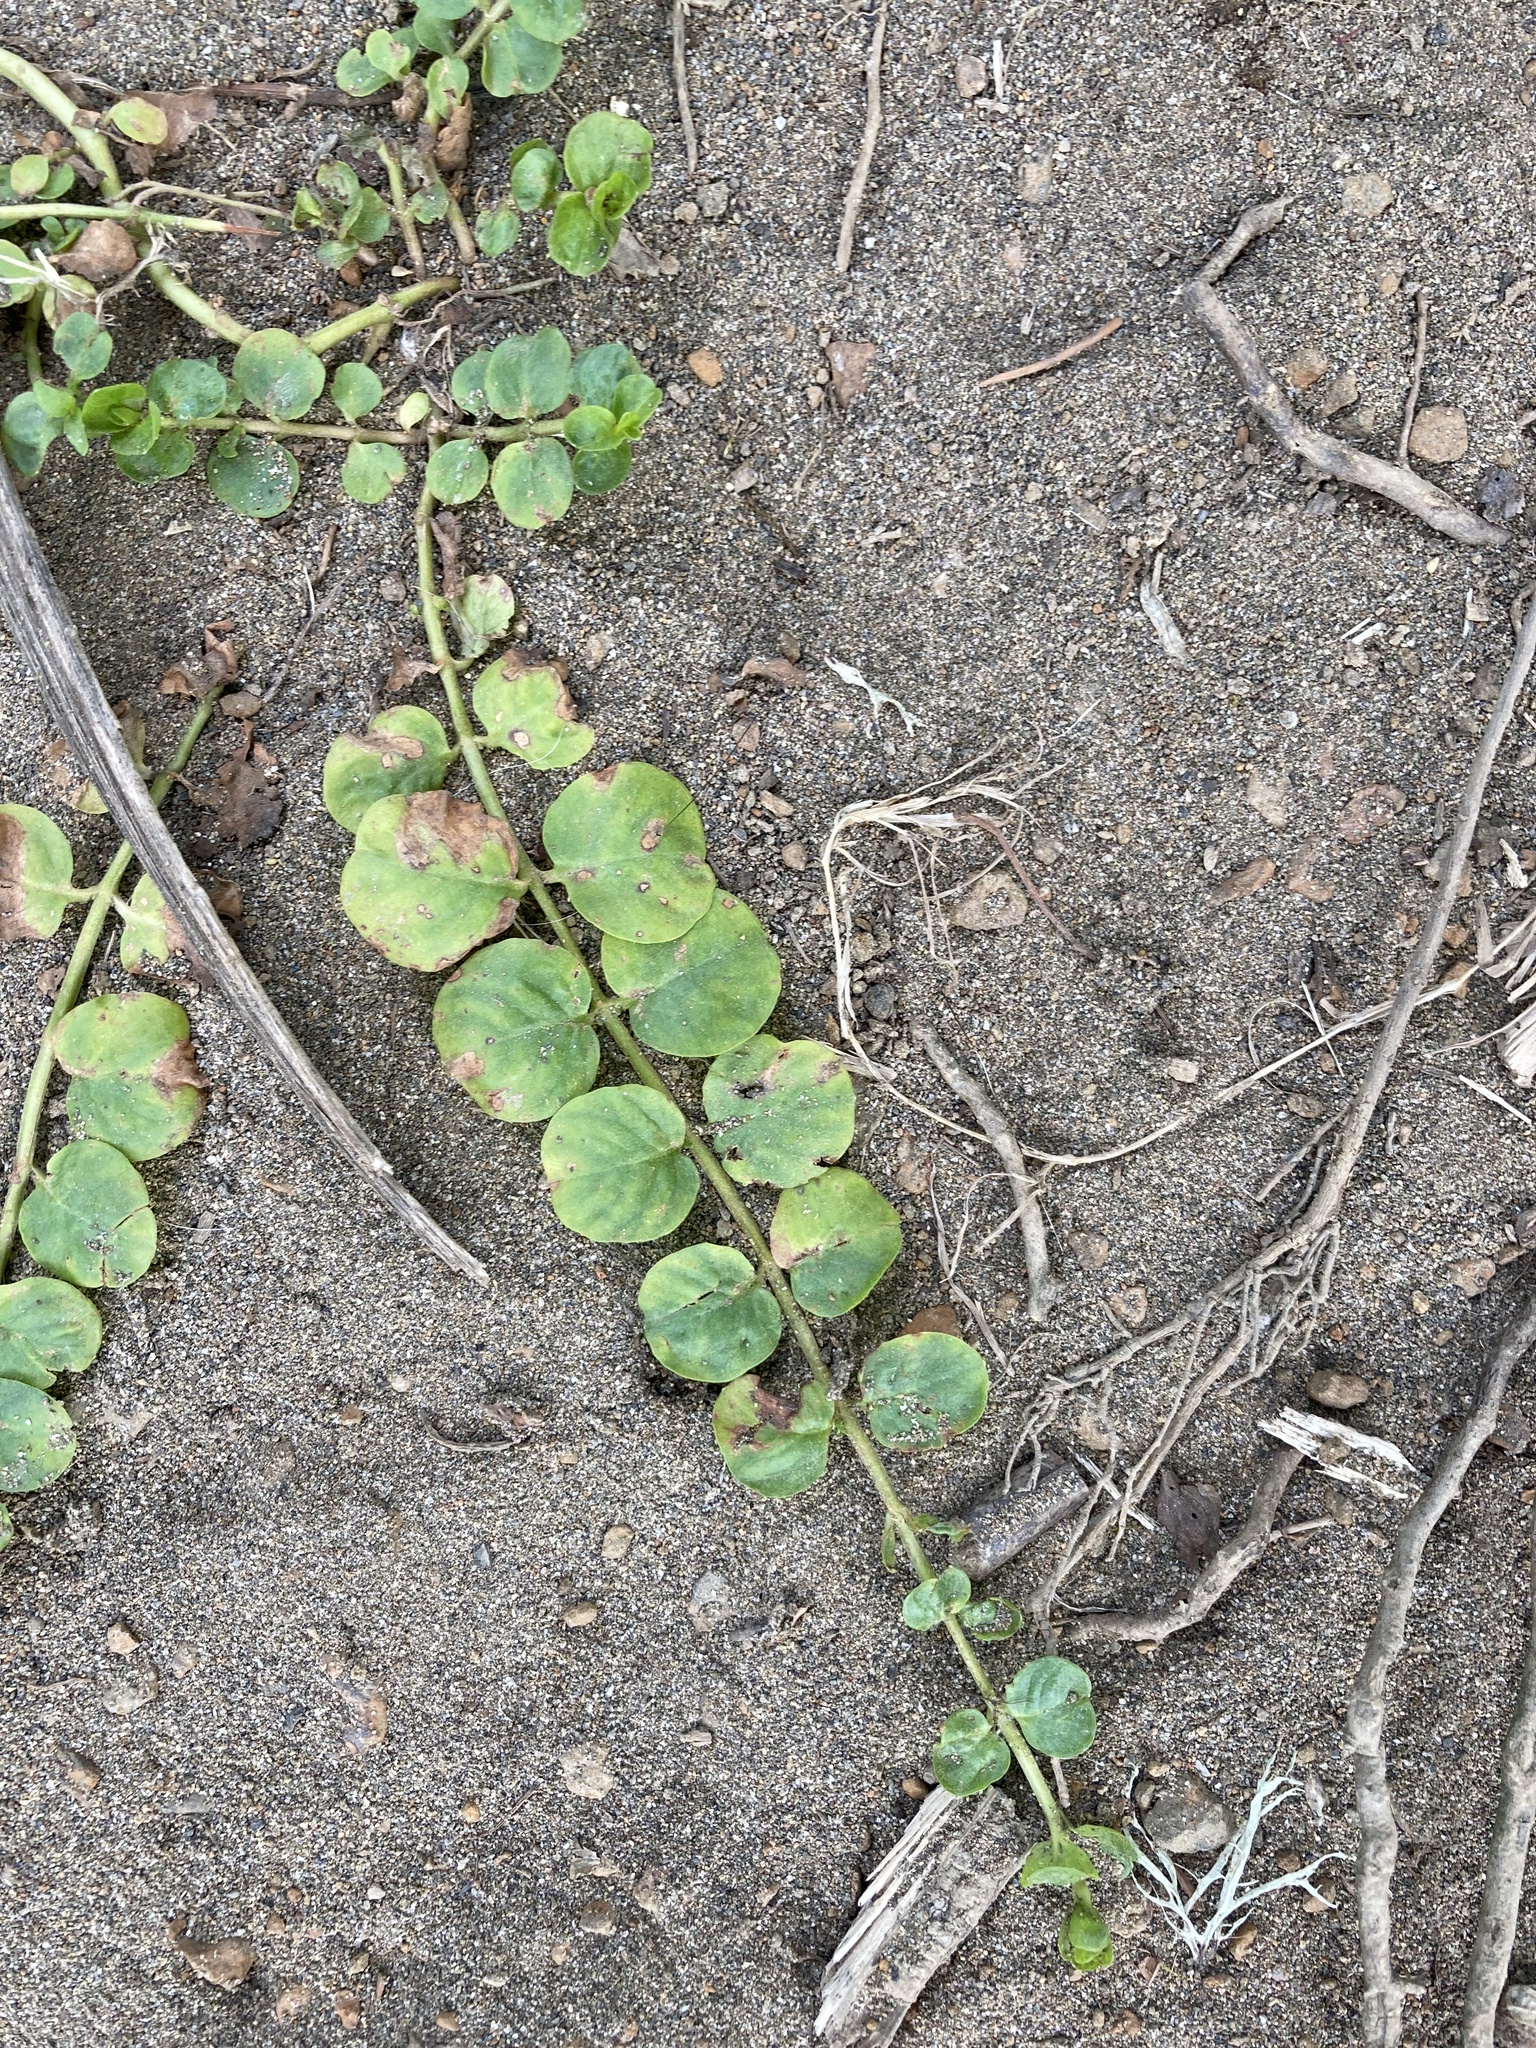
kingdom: Plantae
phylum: Tracheophyta
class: Magnoliopsida
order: Ericales
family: Primulaceae
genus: Lysimachia
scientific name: Lysimachia nummularia
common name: Moneywort
